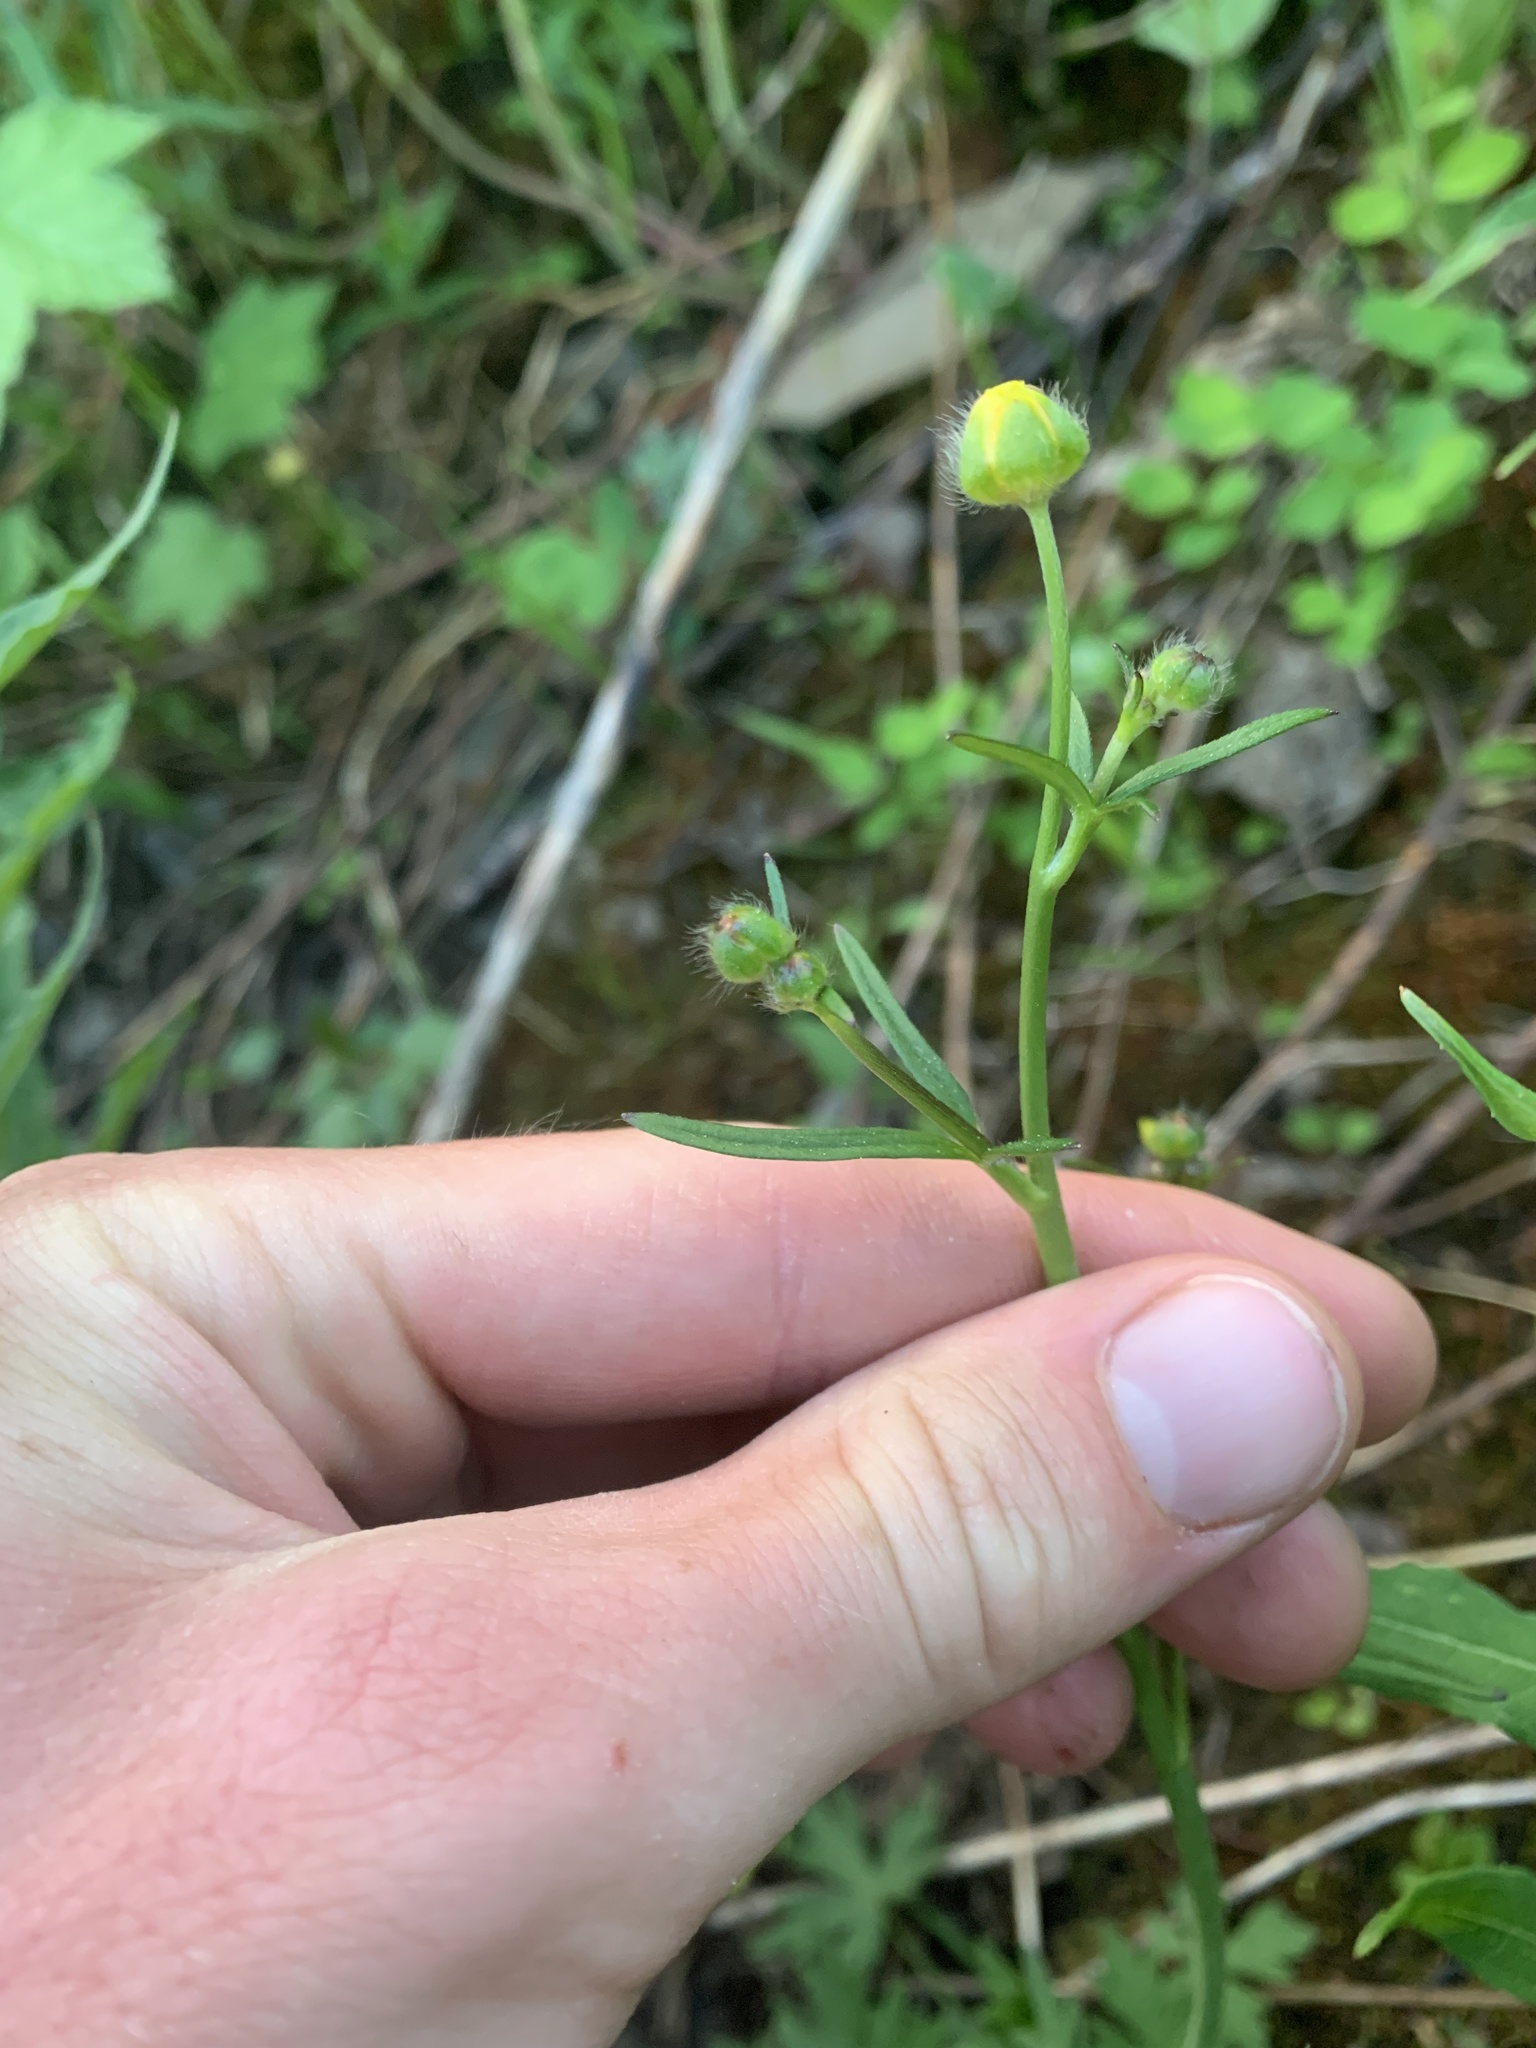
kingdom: Plantae
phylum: Tracheophyta
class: Magnoliopsida
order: Ranunculales
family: Ranunculaceae
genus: Ranunculus
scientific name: Ranunculus acris
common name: Meadow buttercup
